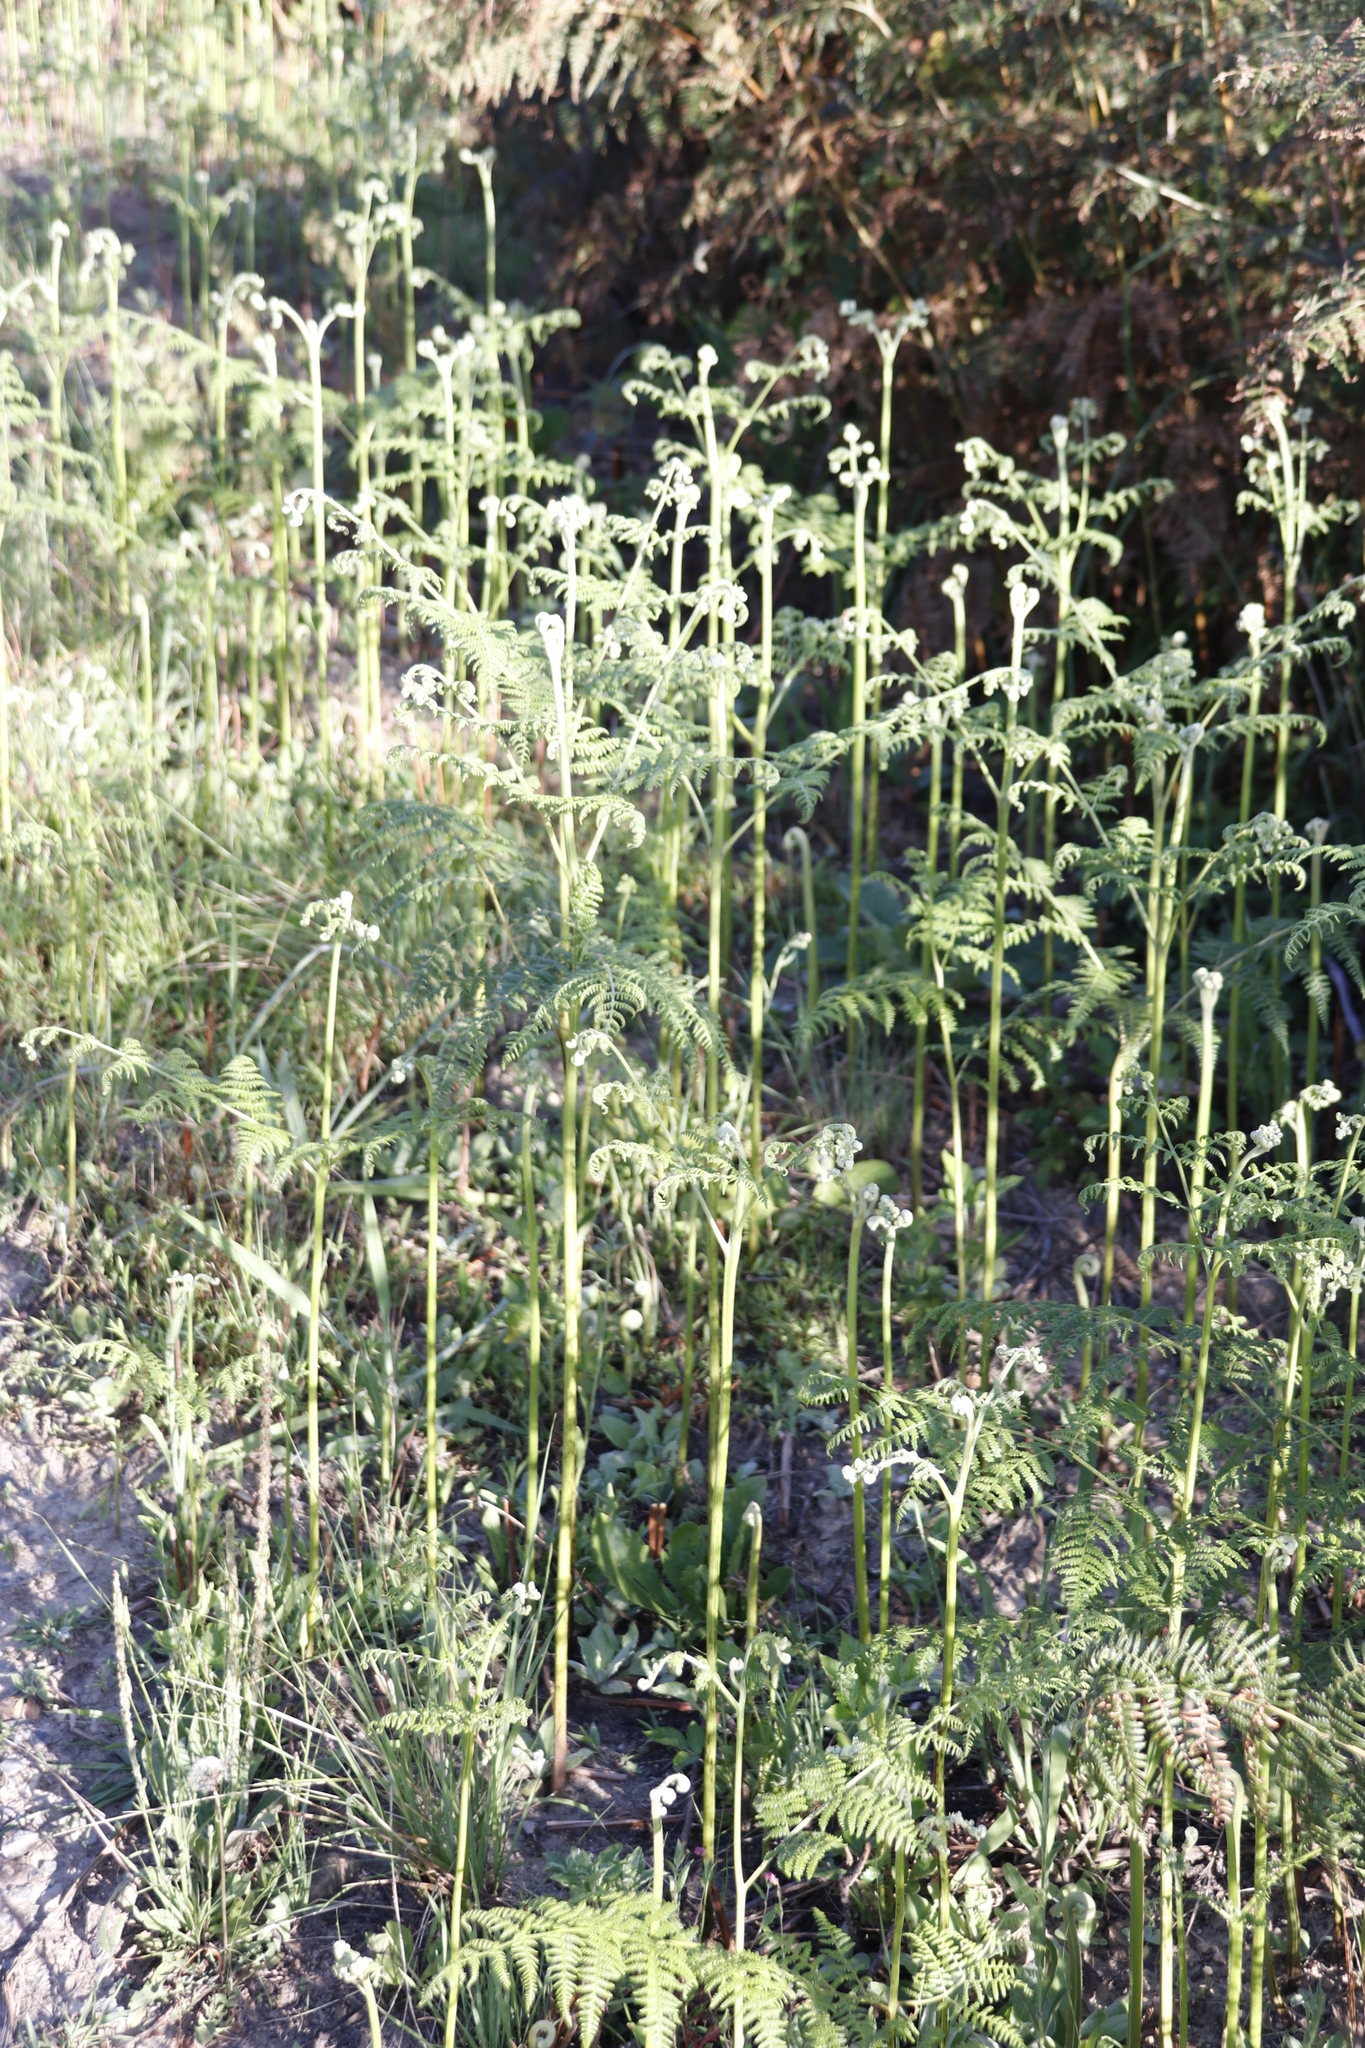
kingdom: Plantae
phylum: Tracheophyta
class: Polypodiopsida
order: Polypodiales
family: Dennstaedtiaceae
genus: Pteridium
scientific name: Pteridium aquilinum
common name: Bracken
